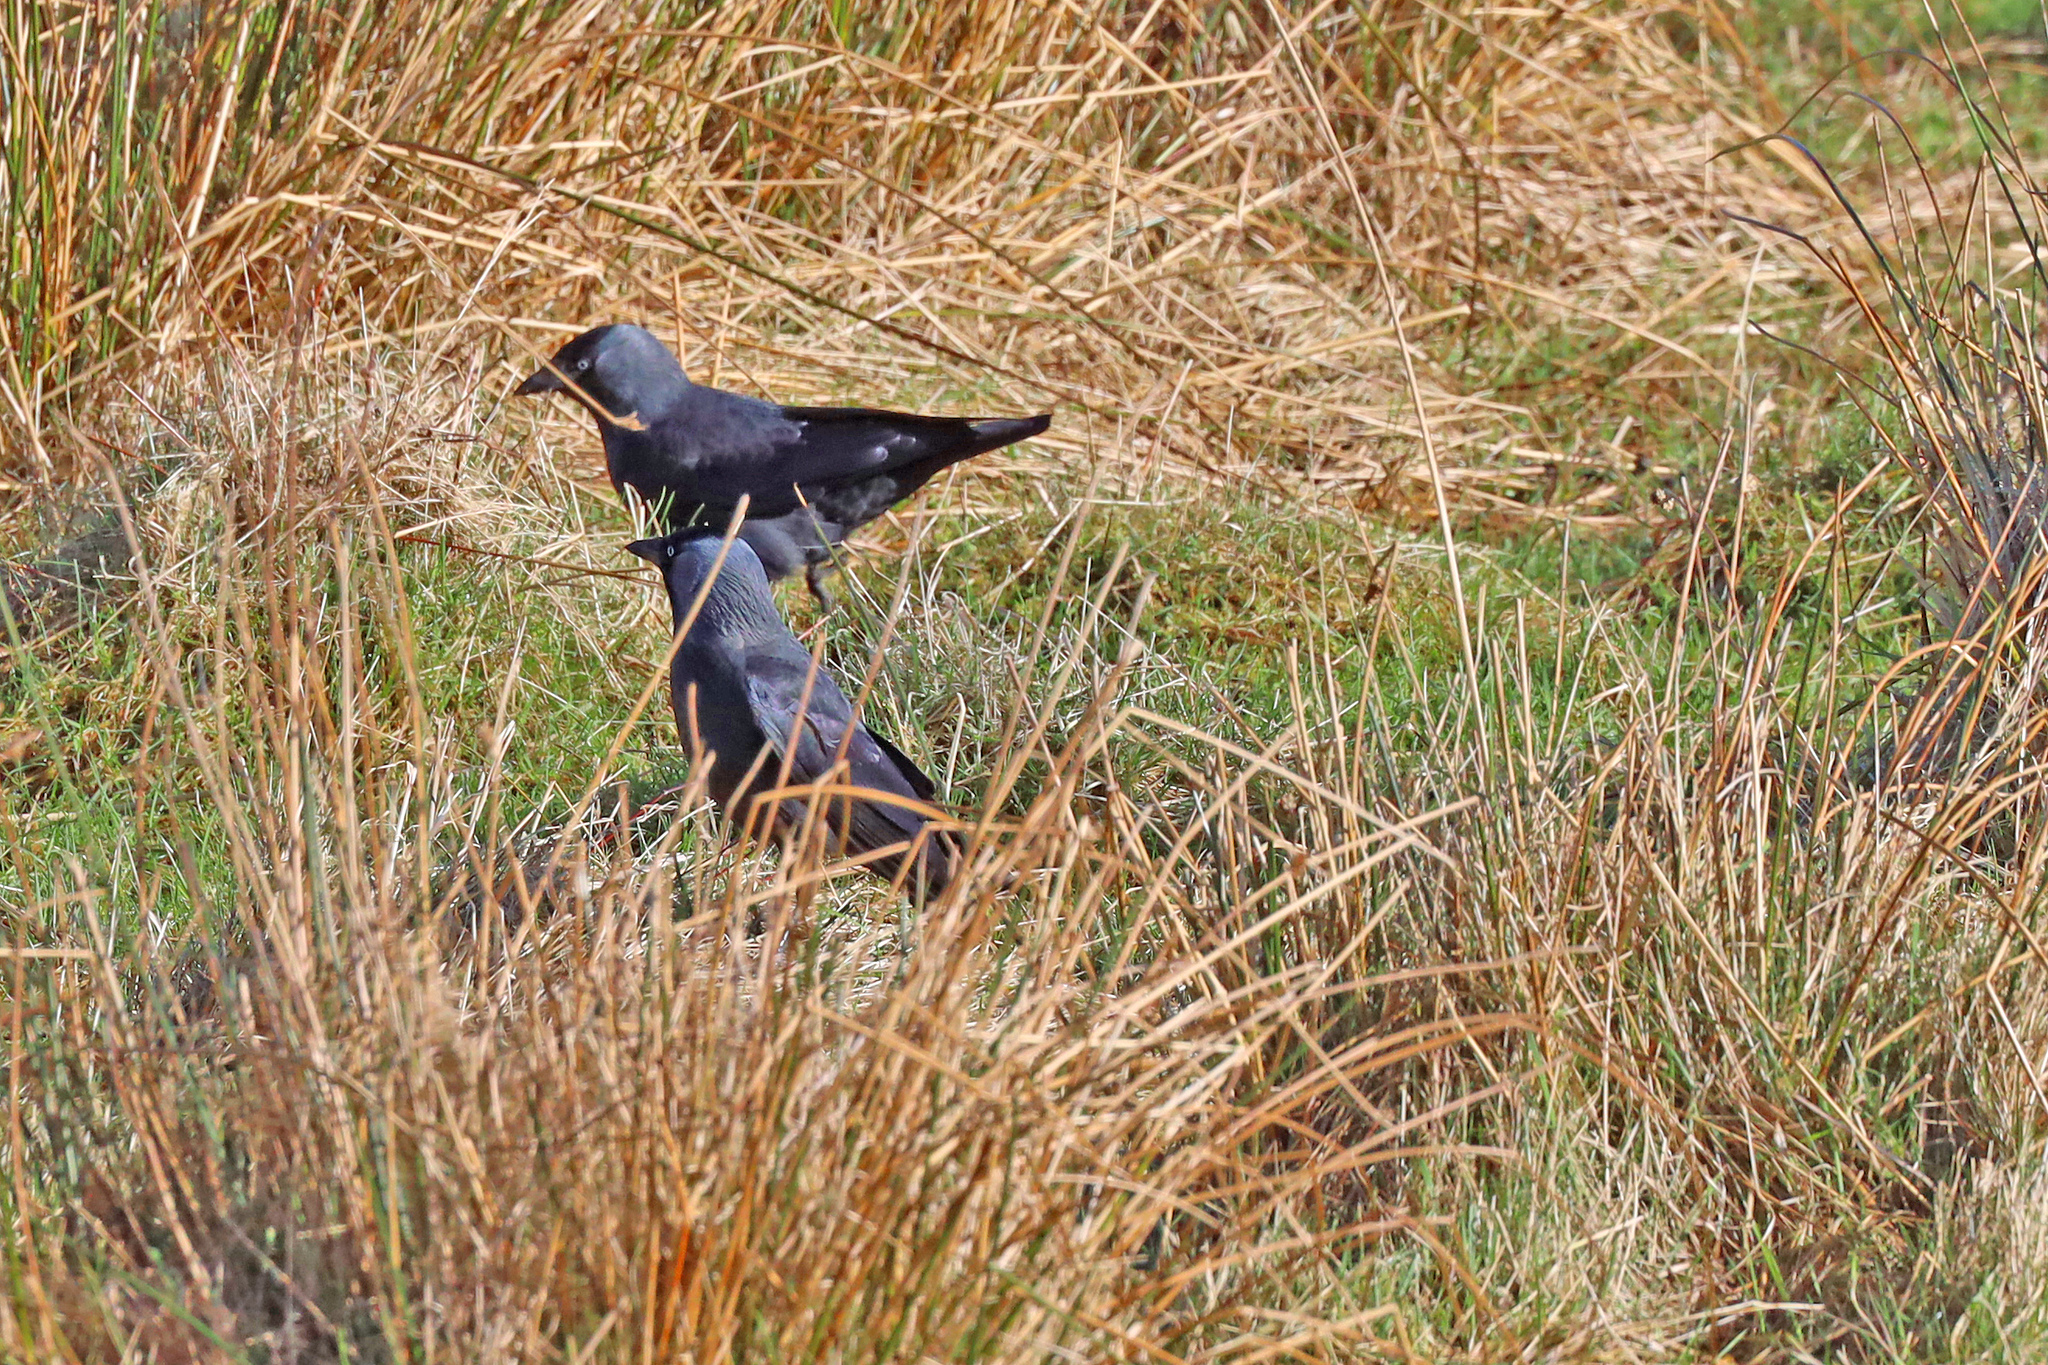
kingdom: Animalia
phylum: Chordata
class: Aves
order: Passeriformes
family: Corvidae
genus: Coloeus
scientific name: Coloeus monedula
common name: Western jackdaw
